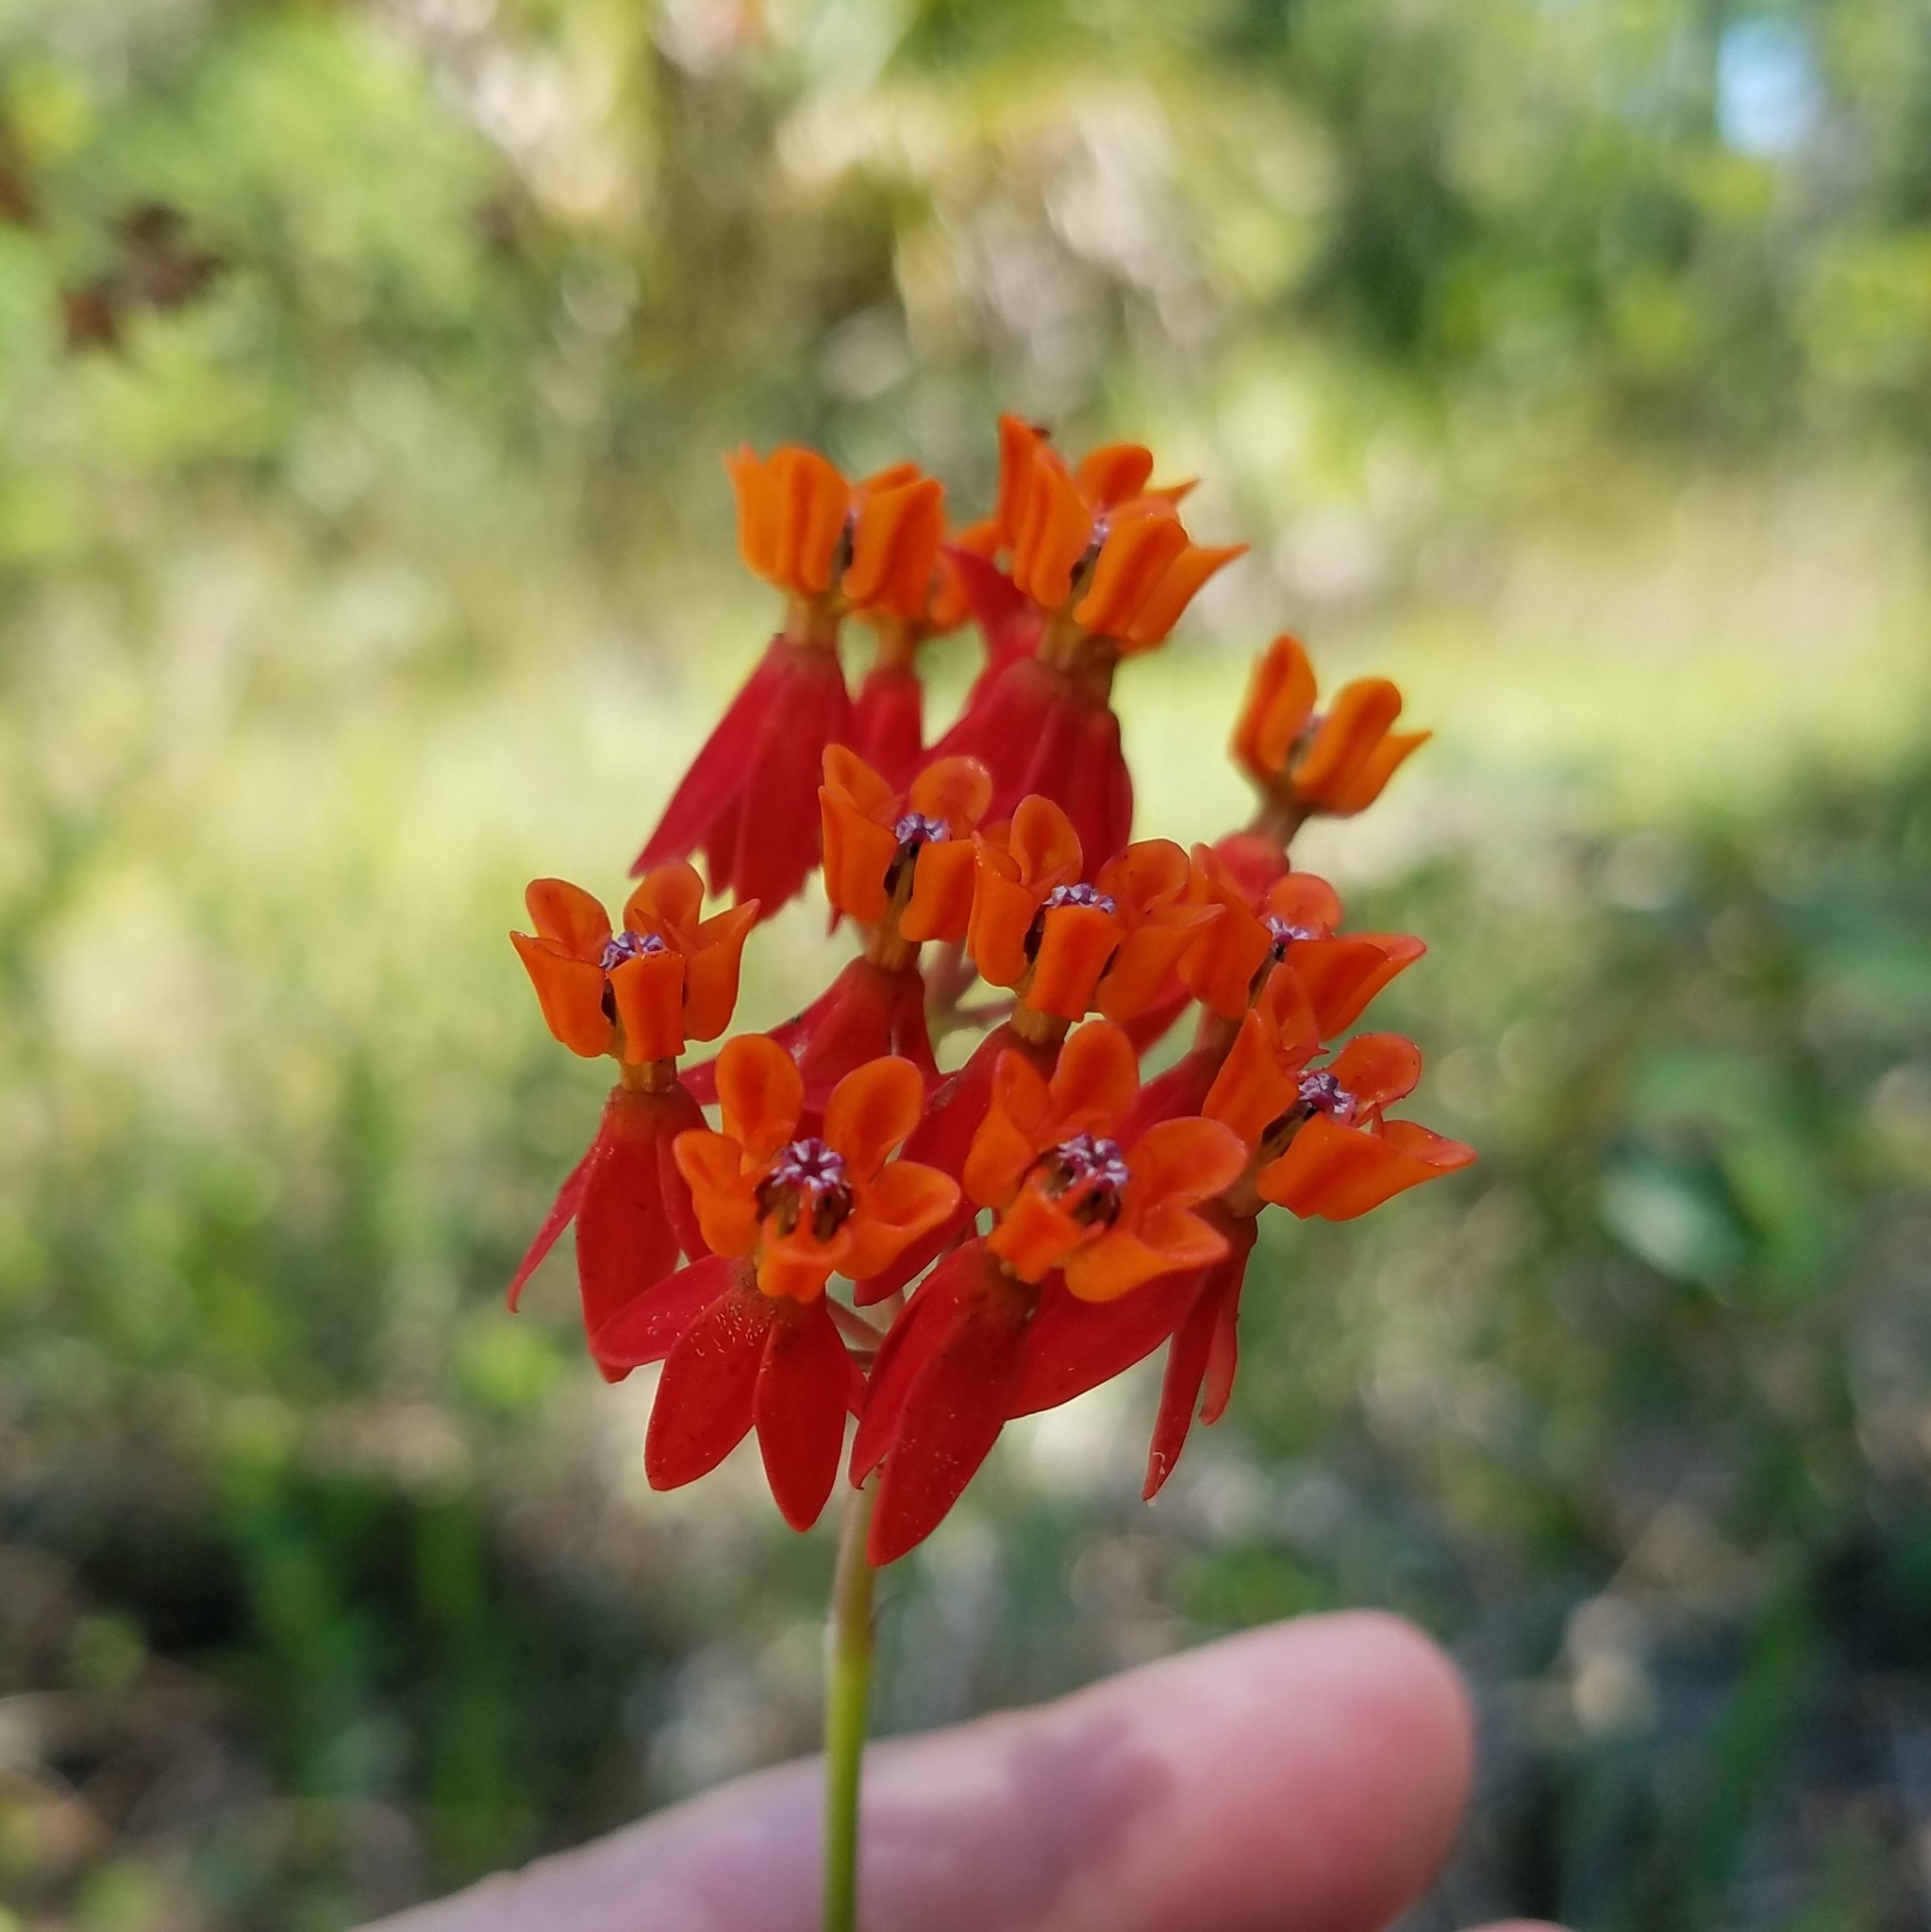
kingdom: Plantae
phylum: Tracheophyta
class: Magnoliopsida
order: Gentianales
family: Apocynaceae
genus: Asclepias
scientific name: Asclepias lanceolata
